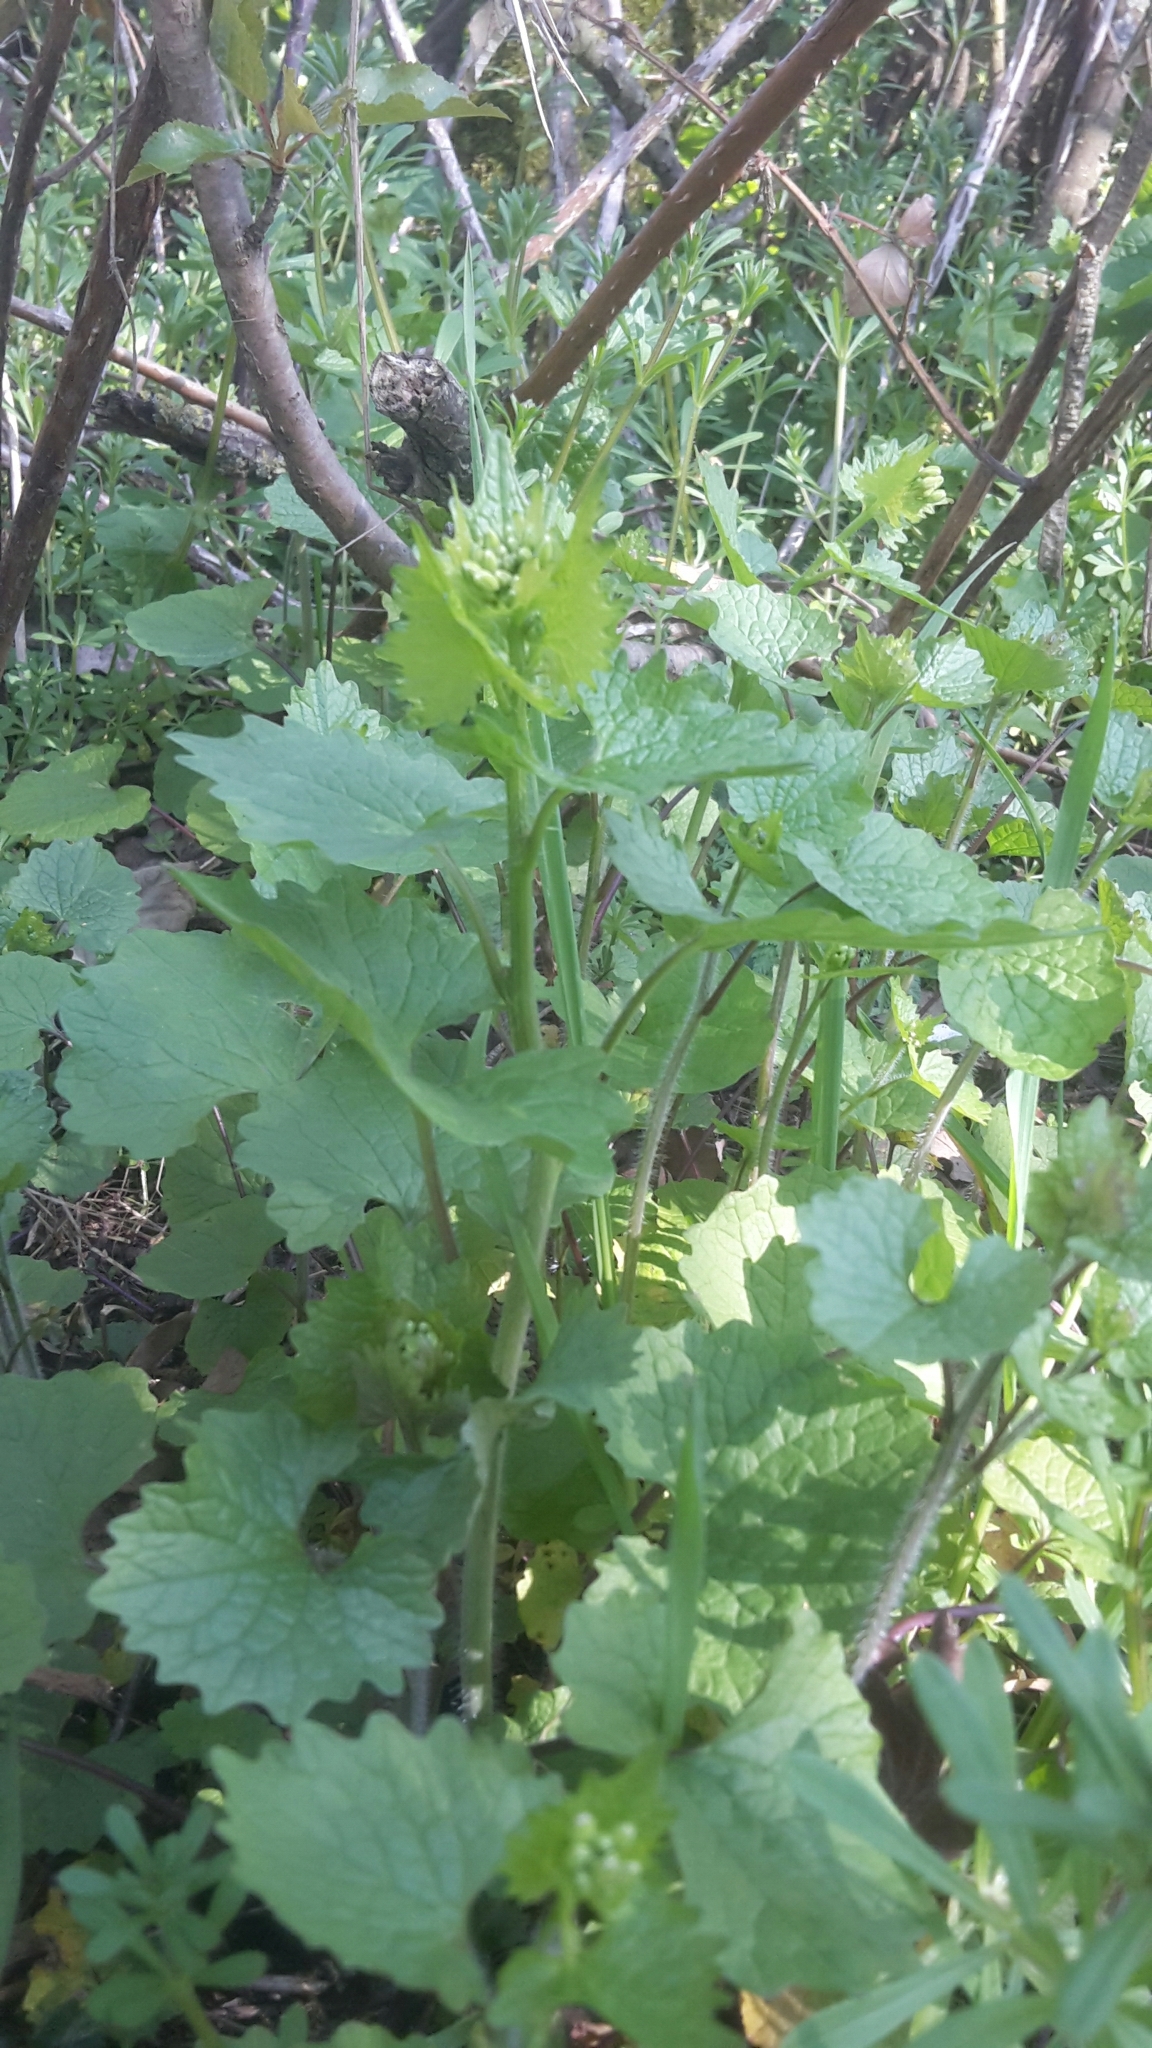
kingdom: Plantae
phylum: Tracheophyta
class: Magnoliopsida
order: Brassicales
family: Brassicaceae
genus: Alliaria
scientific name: Alliaria petiolata
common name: Garlic mustard
